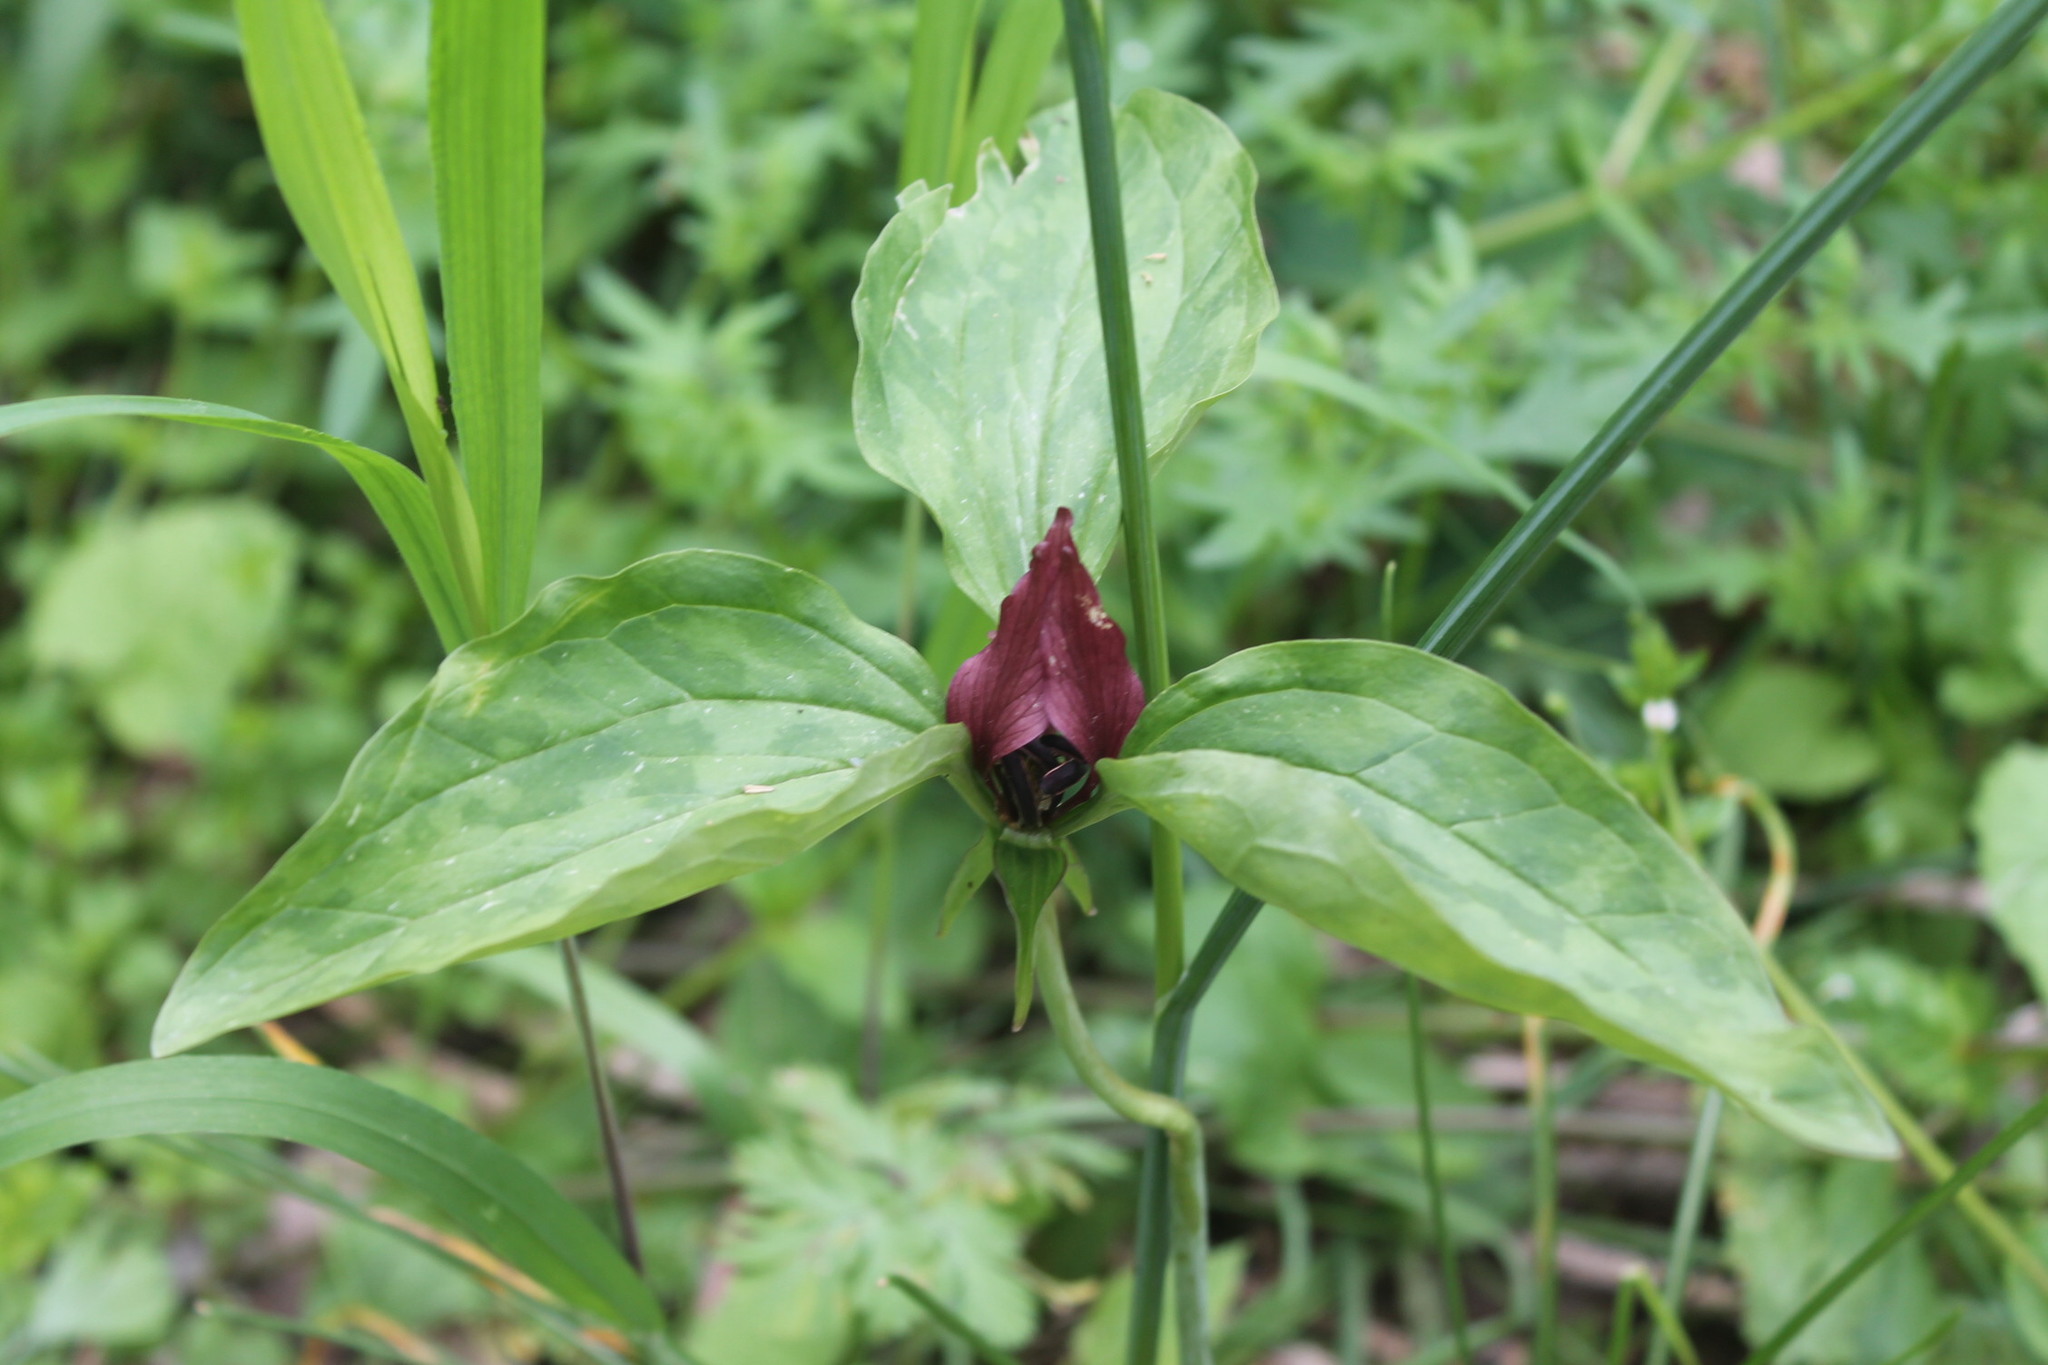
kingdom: Plantae
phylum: Tracheophyta
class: Liliopsida
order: Liliales
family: Melanthiaceae
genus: Trillium
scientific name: Trillium recurvatum
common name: Bloody butcher
